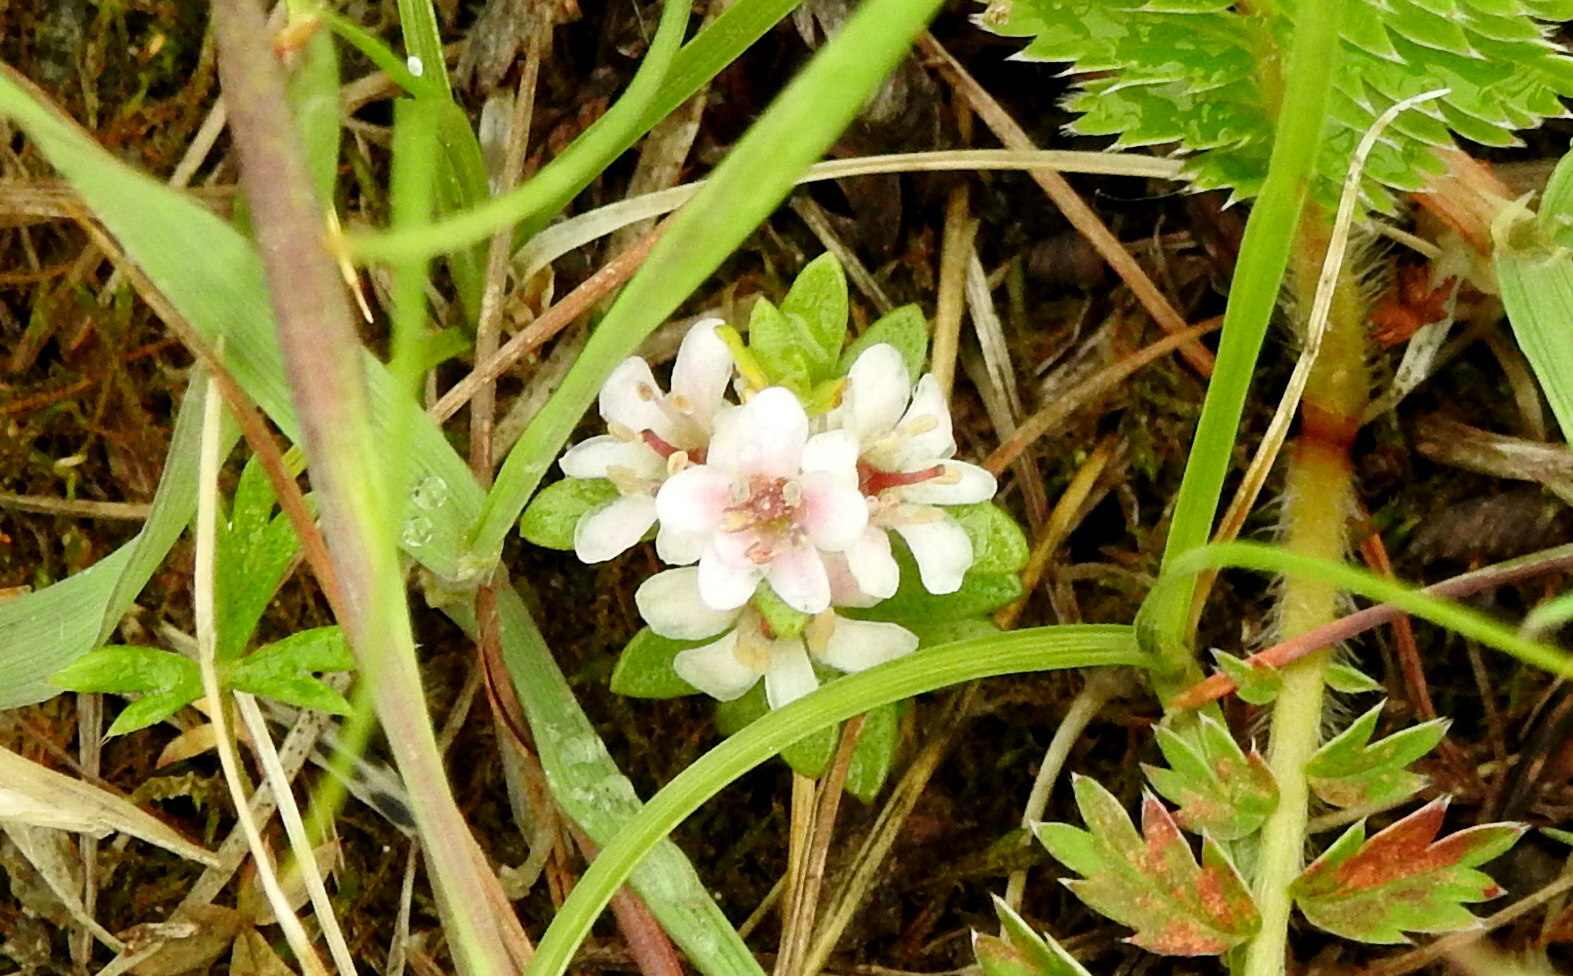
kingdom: Plantae
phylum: Tracheophyta
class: Magnoliopsida
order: Ericales
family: Primulaceae
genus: Lysimachia
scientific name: Lysimachia maritima
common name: Sea milkwort
